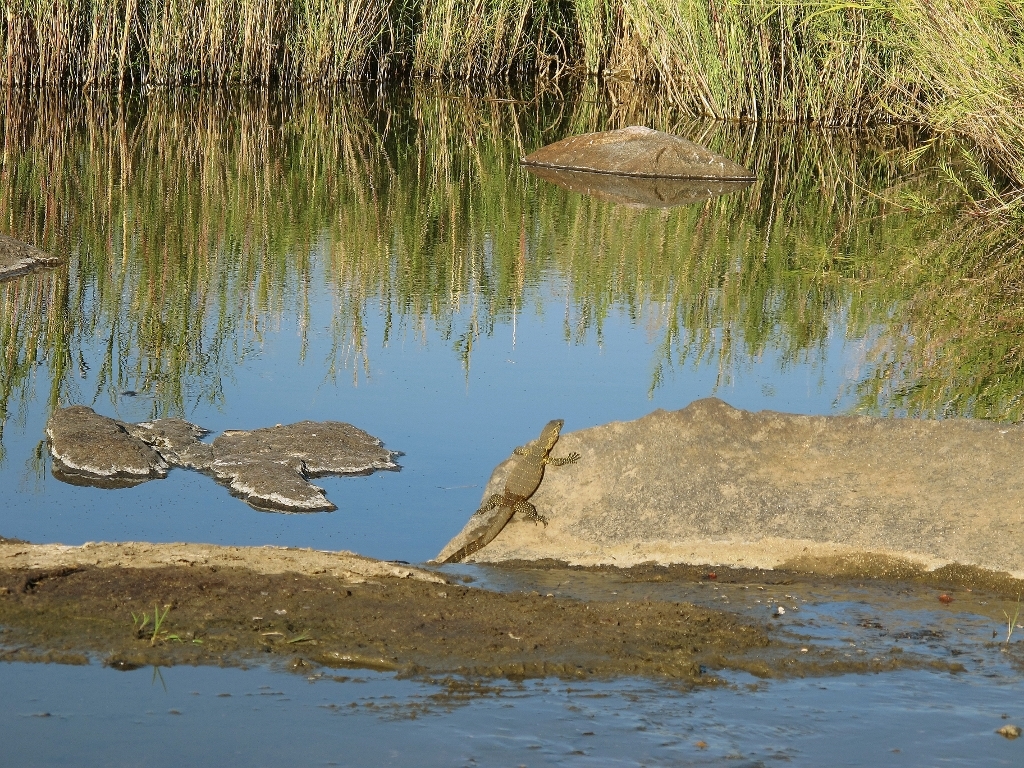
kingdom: Animalia
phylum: Chordata
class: Squamata
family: Varanidae
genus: Varanus
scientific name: Varanus niloticus
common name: Nile monitor
